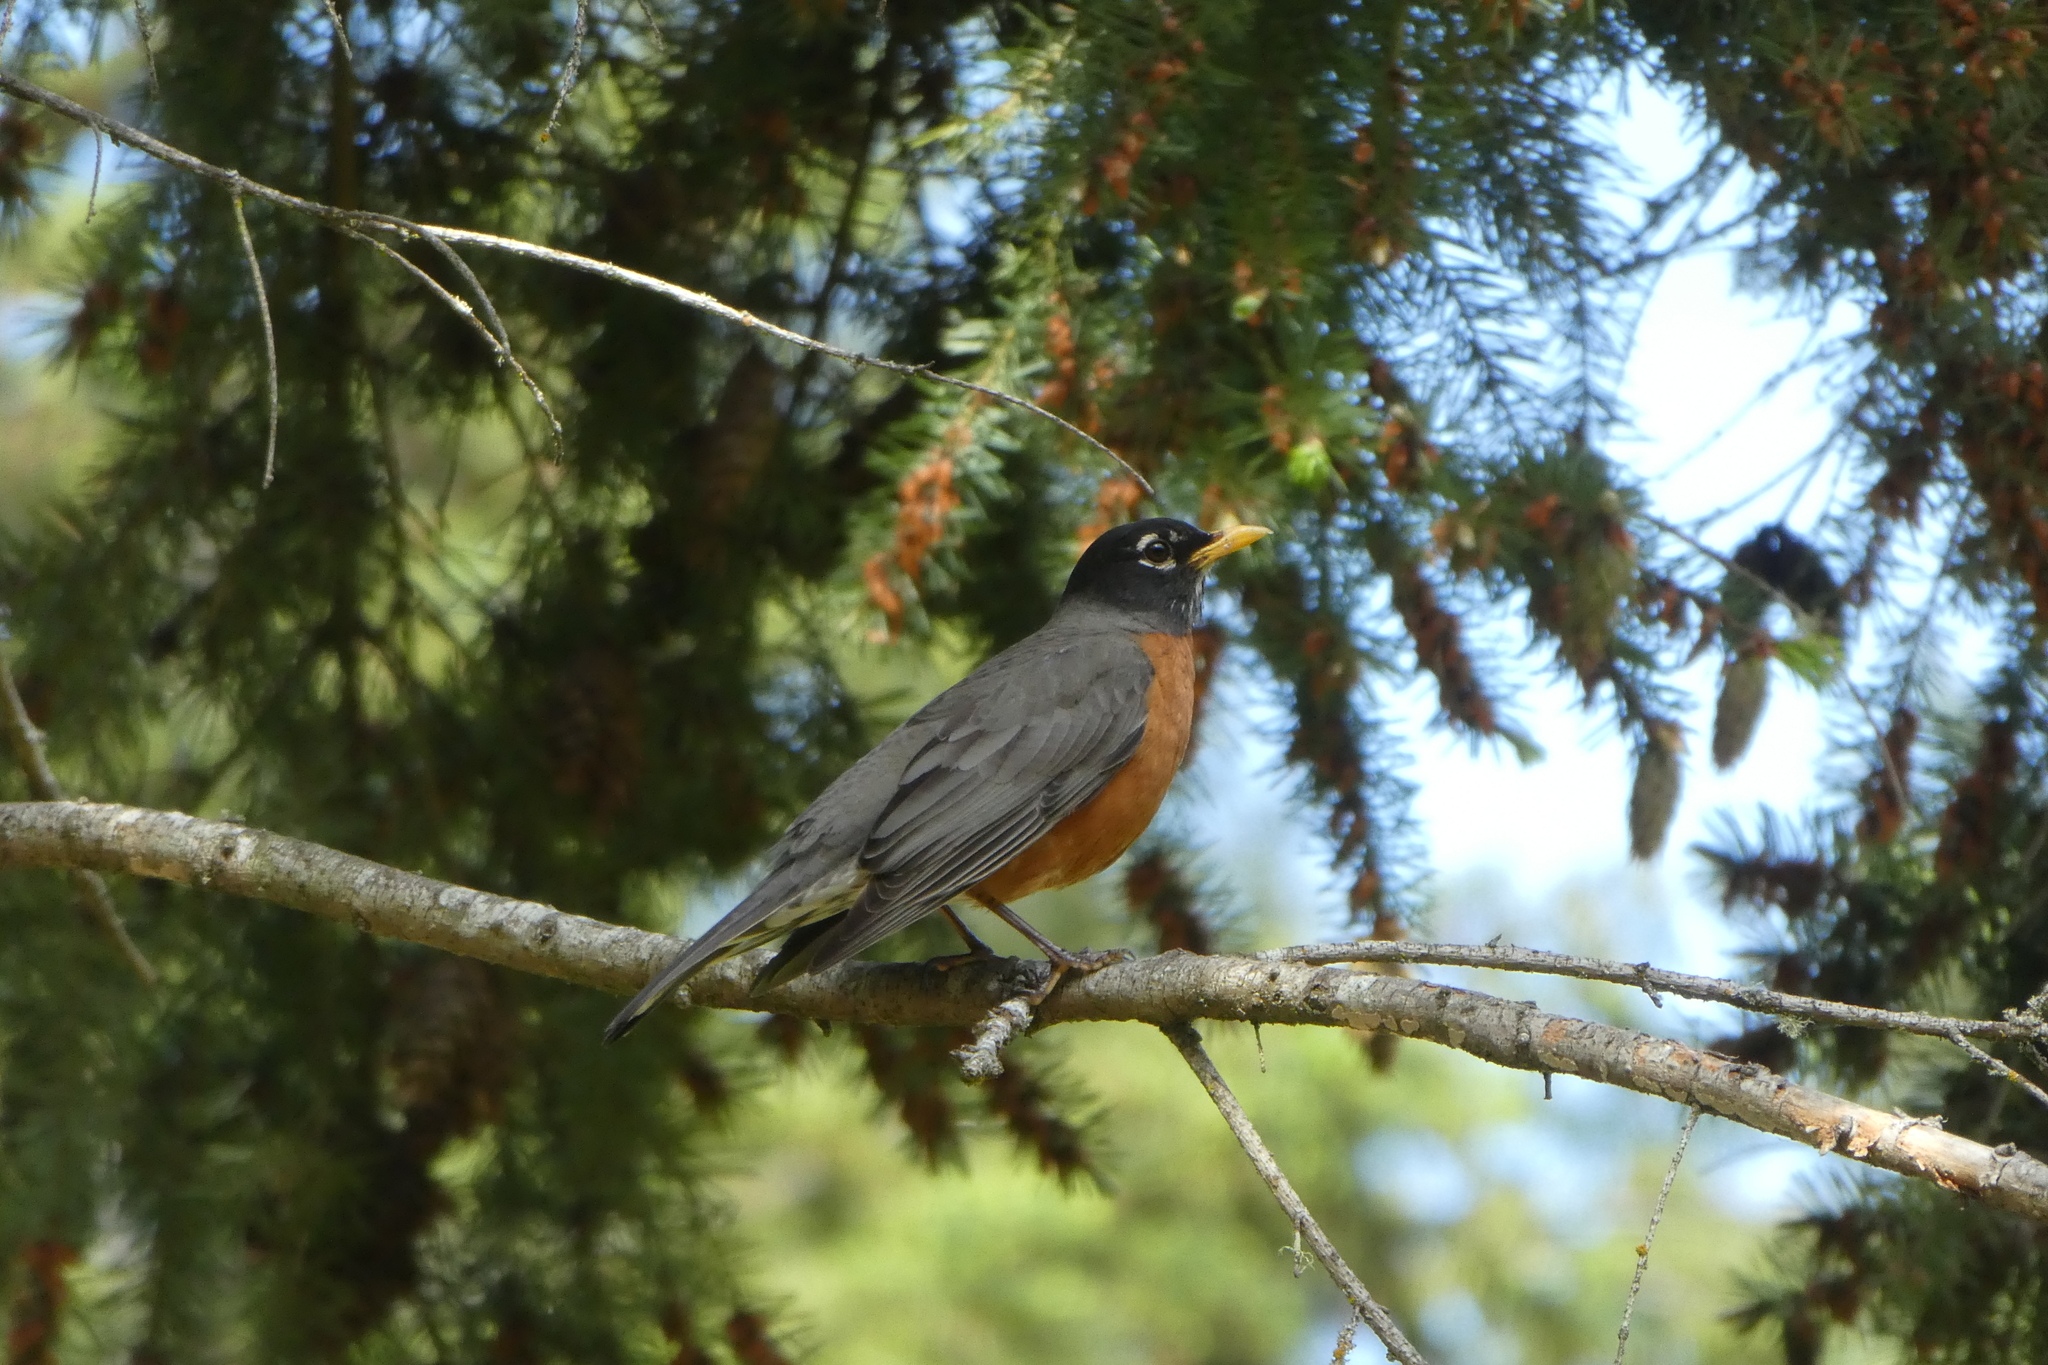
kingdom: Animalia
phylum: Chordata
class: Aves
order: Passeriformes
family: Turdidae
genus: Turdus
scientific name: Turdus migratorius
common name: American robin
